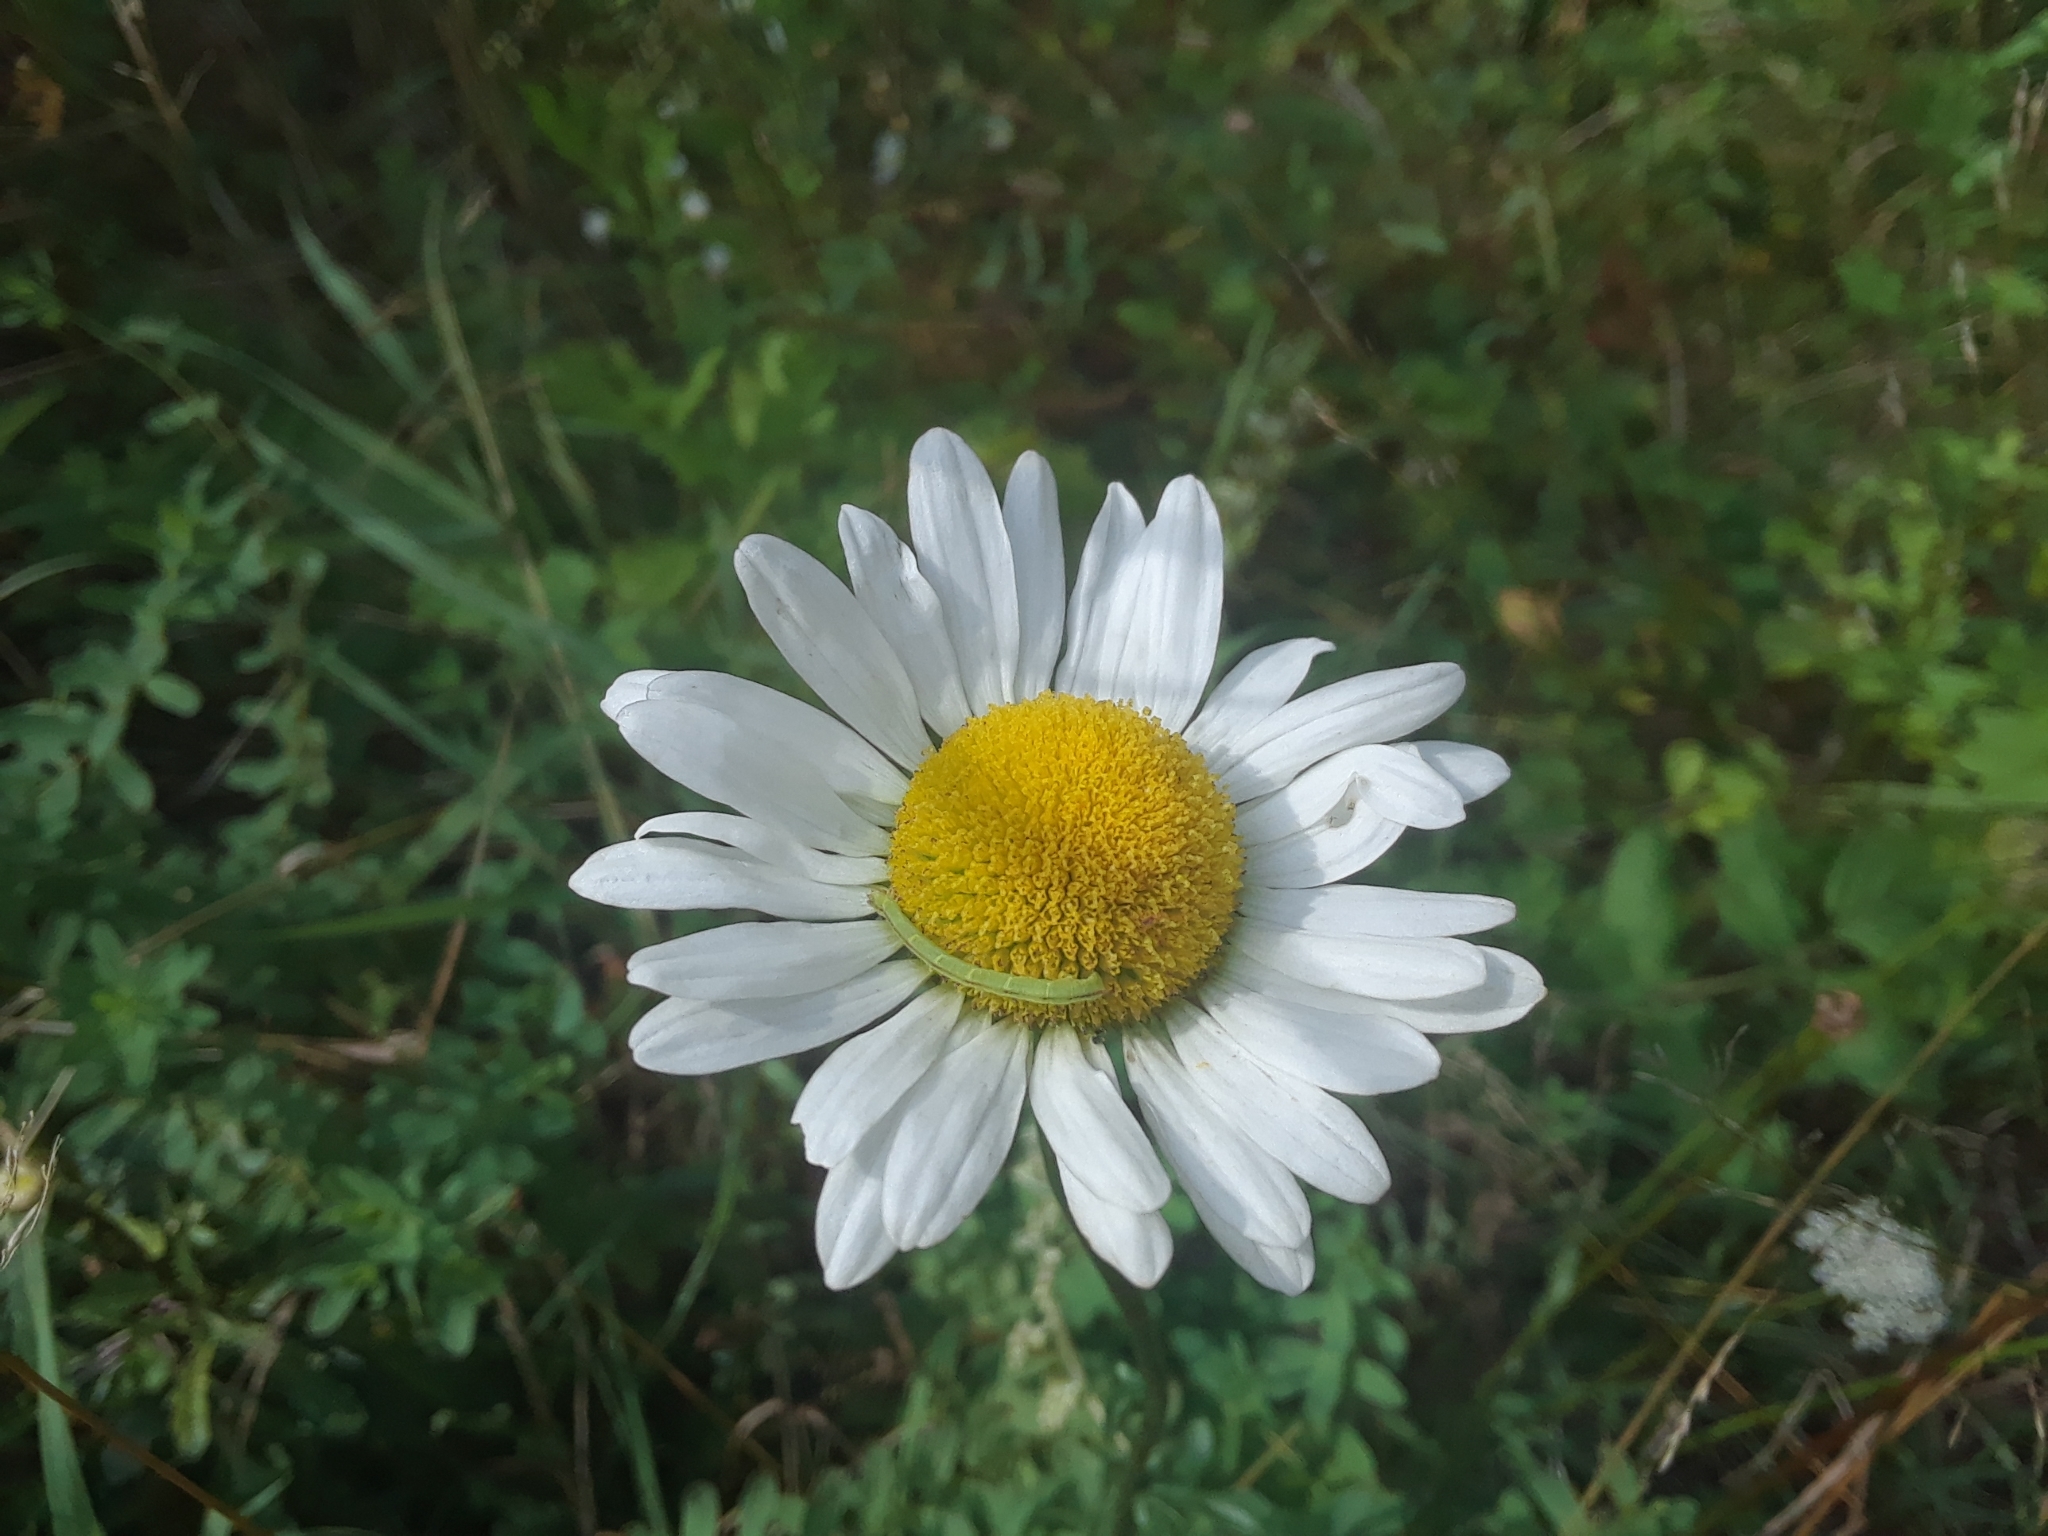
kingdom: Plantae
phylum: Tracheophyta
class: Magnoliopsida
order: Asterales
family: Asteraceae
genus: Leucanthemum
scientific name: Leucanthemum vulgare
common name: Oxeye daisy
